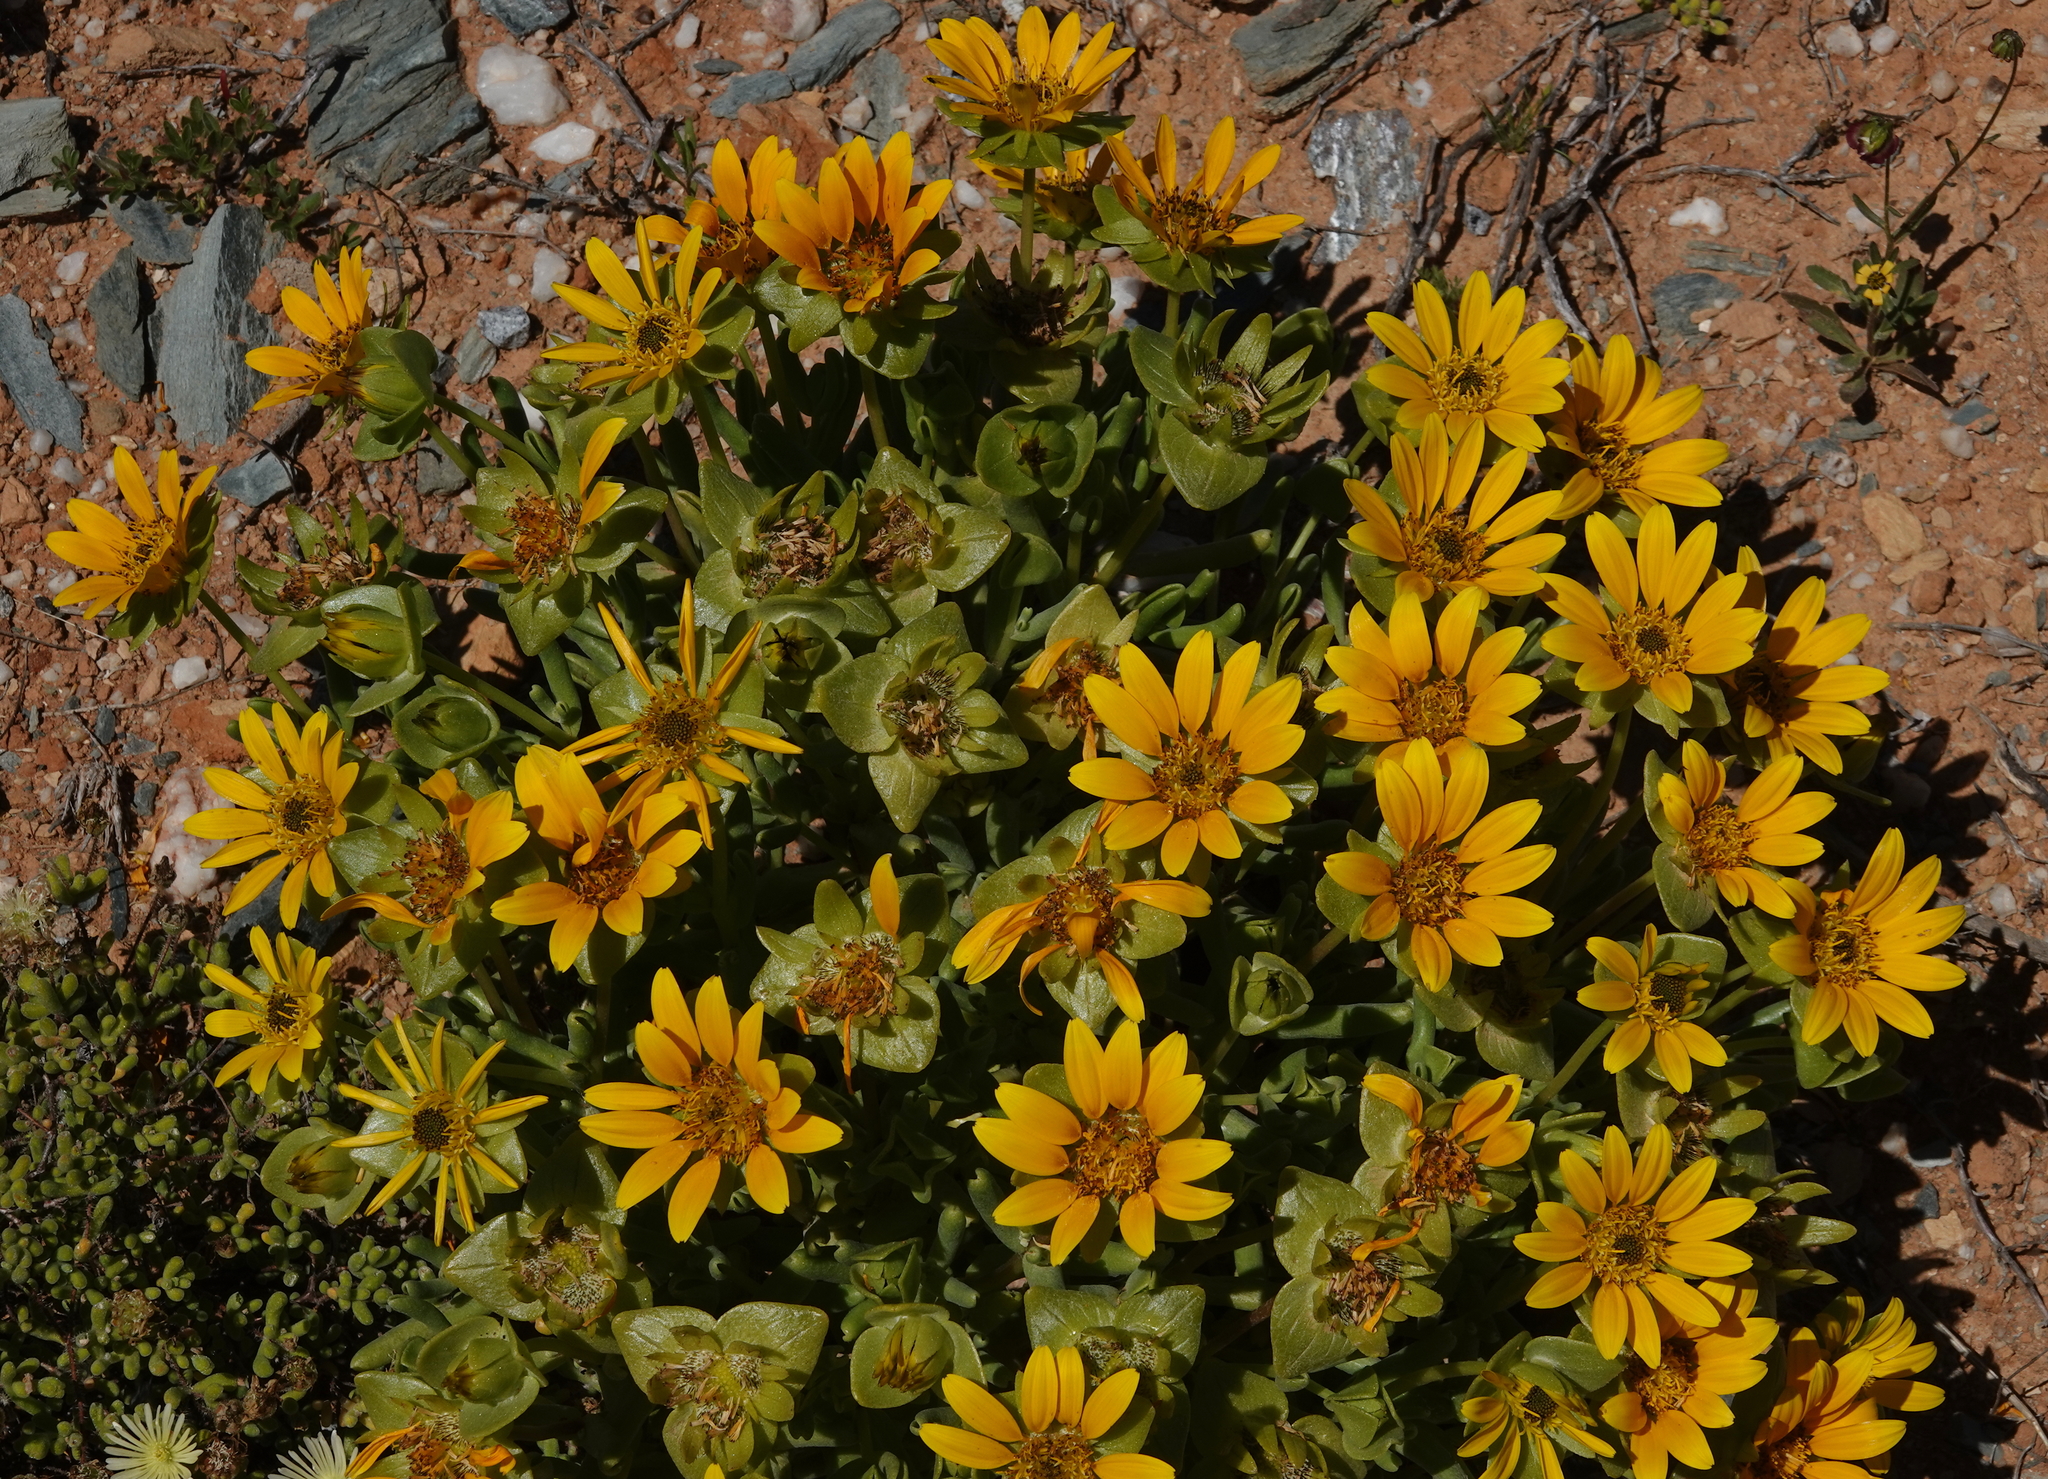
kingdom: Plantae
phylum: Tracheophyta
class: Magnoliopsida
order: Asterales
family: Asteraceae
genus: Didelta
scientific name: Didelta carnosa
